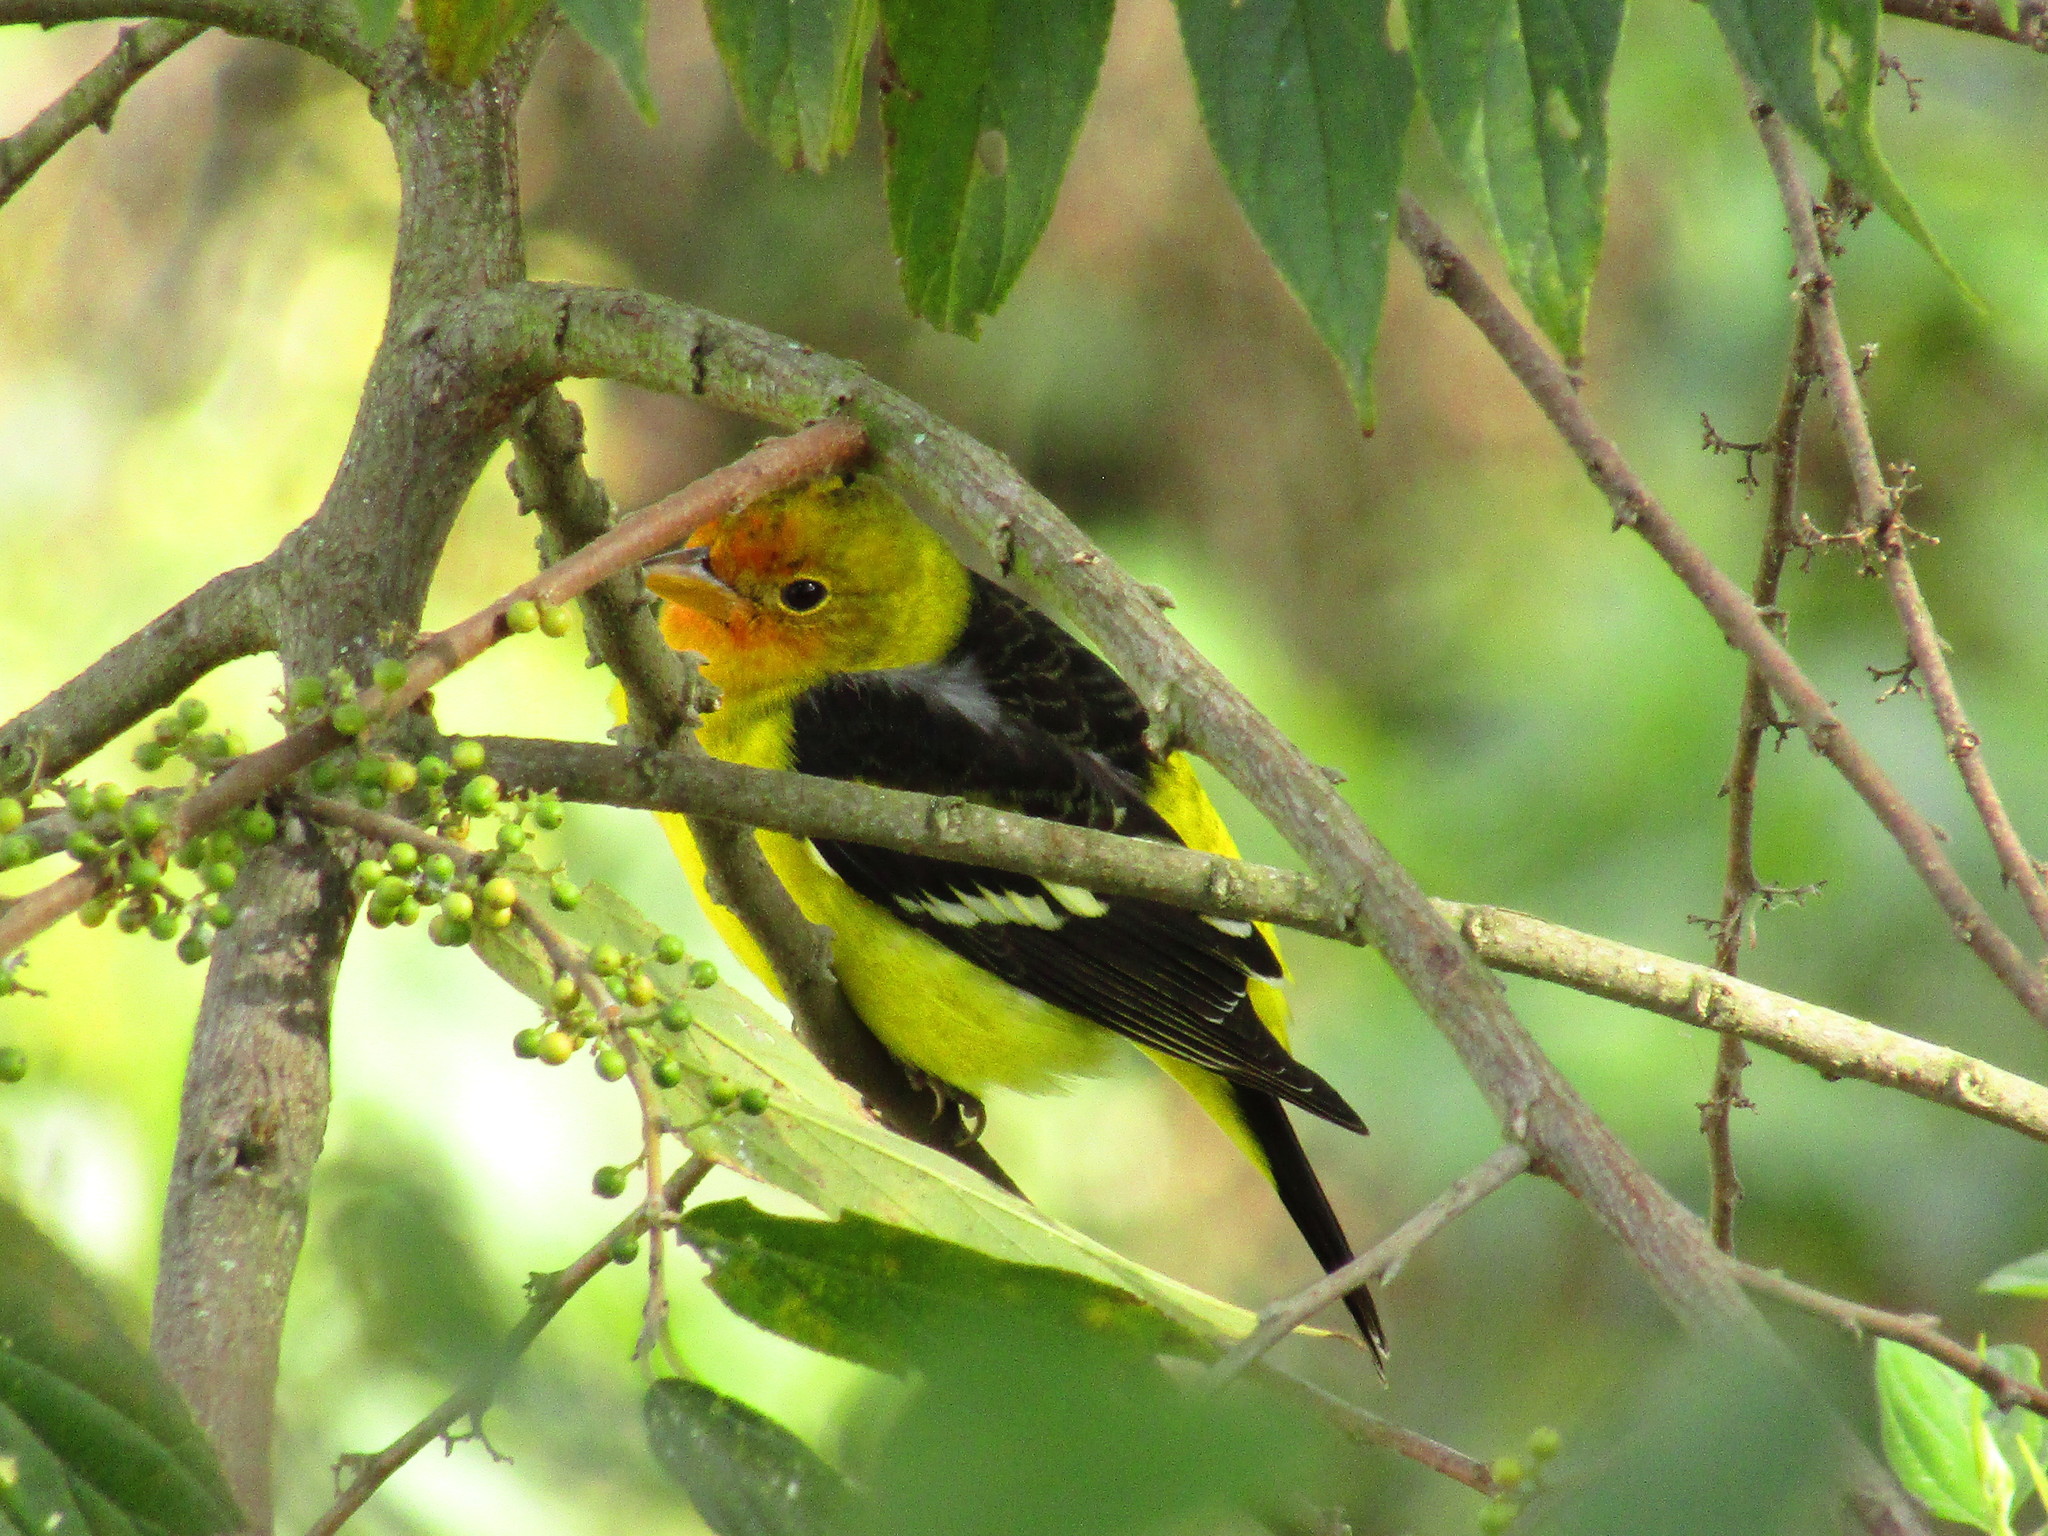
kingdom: Animalia
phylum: Chordata
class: Aves
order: Passeriformes
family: Cardinalidae
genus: Piranga
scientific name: Piranga ludoviciana
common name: Western tanager
